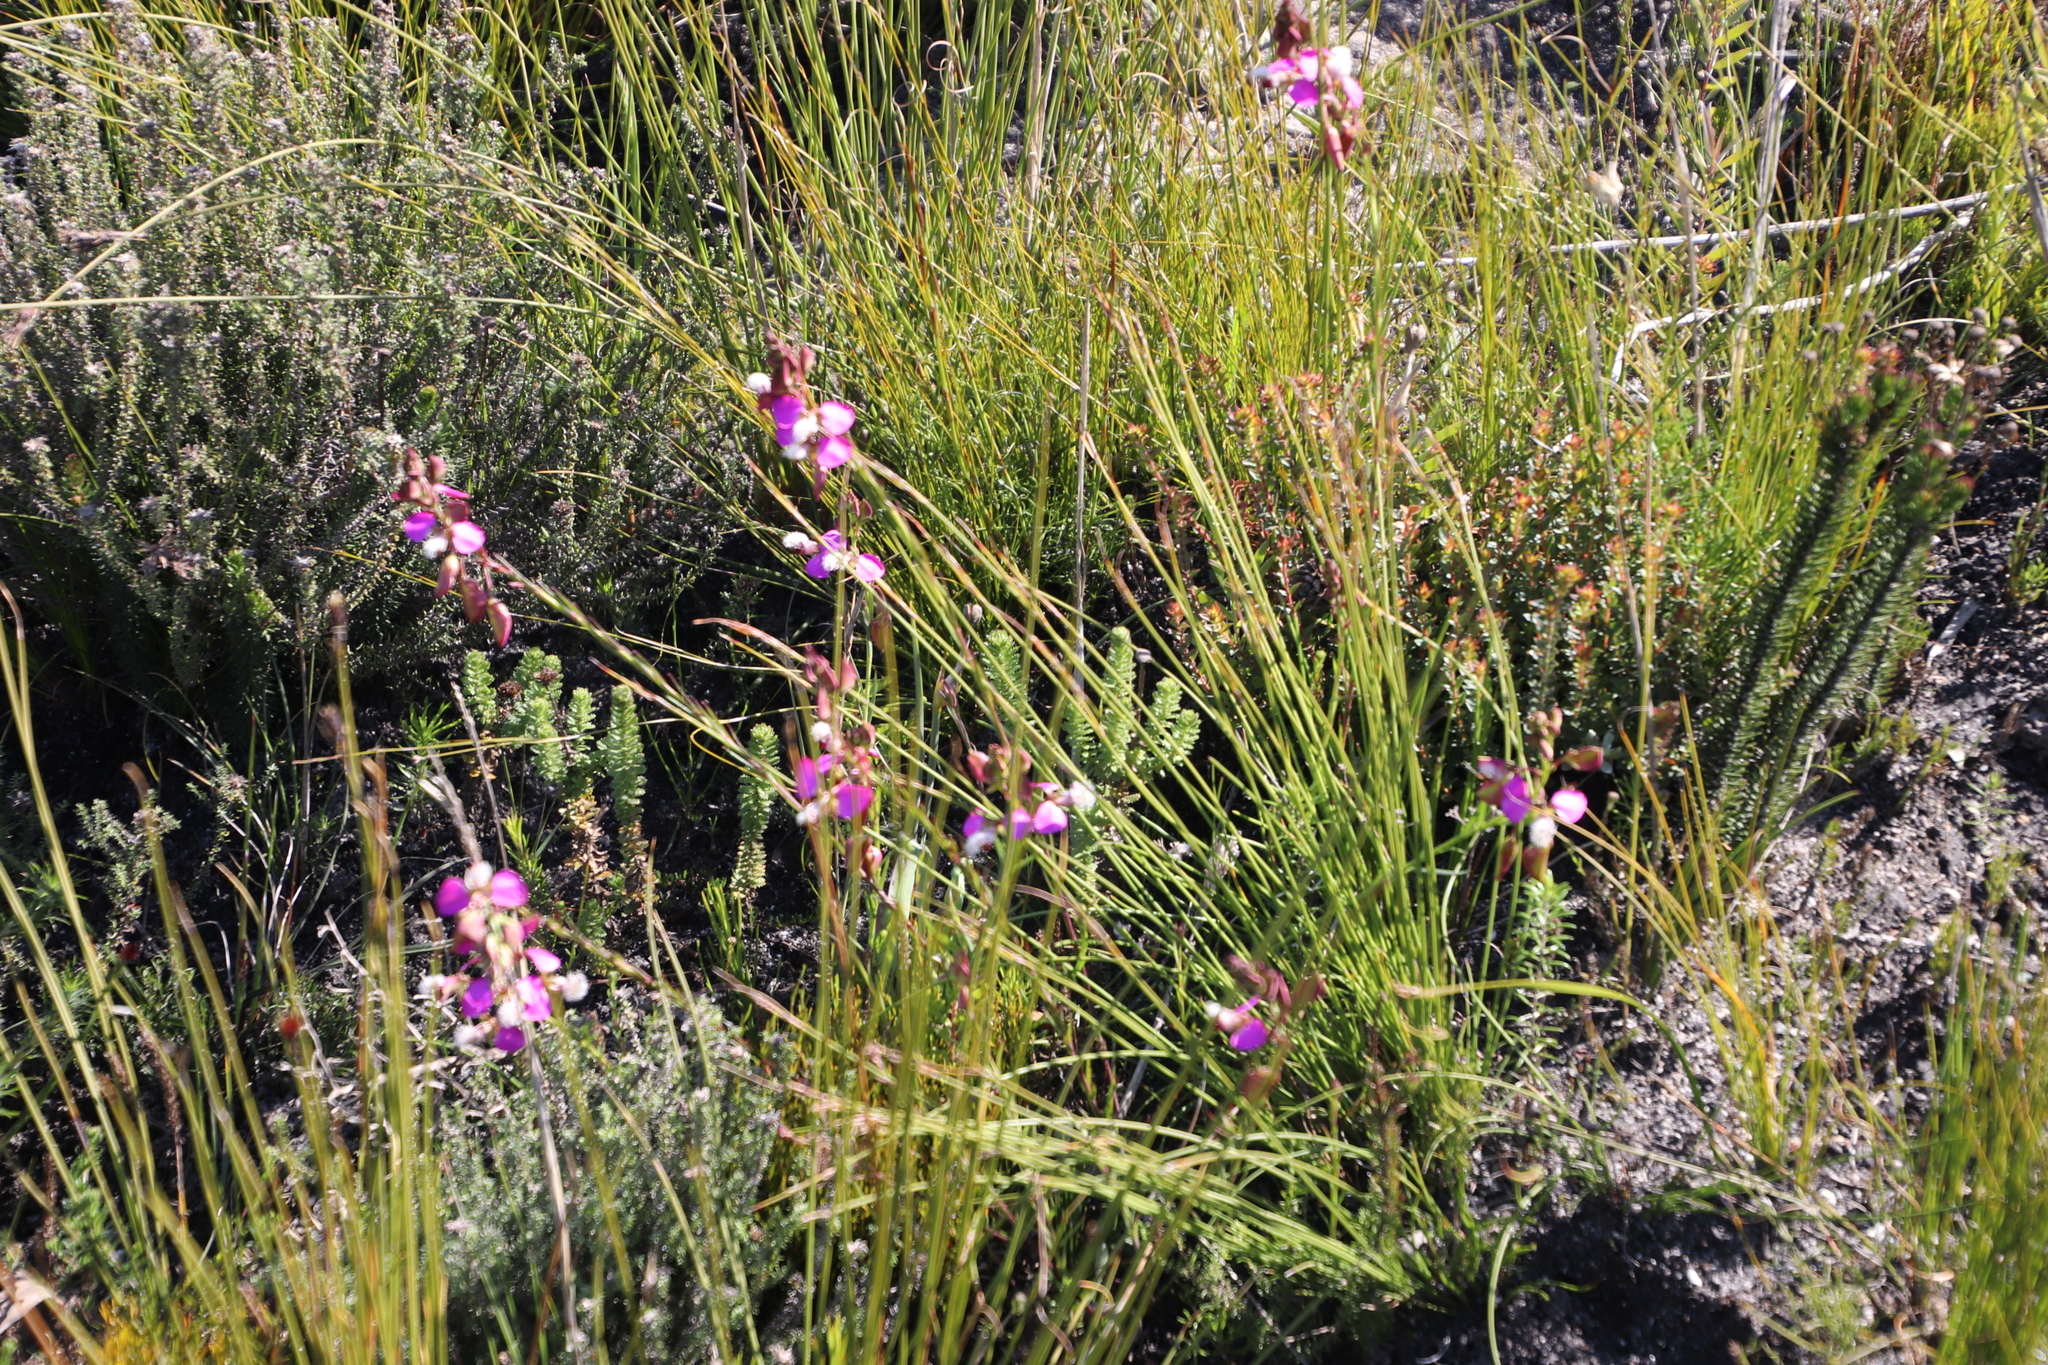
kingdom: Plantae
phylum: Tracheophyta
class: Magnoliopsida
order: Fabales
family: Polygalaceae
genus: Polygala
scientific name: Polygala bracteolata
